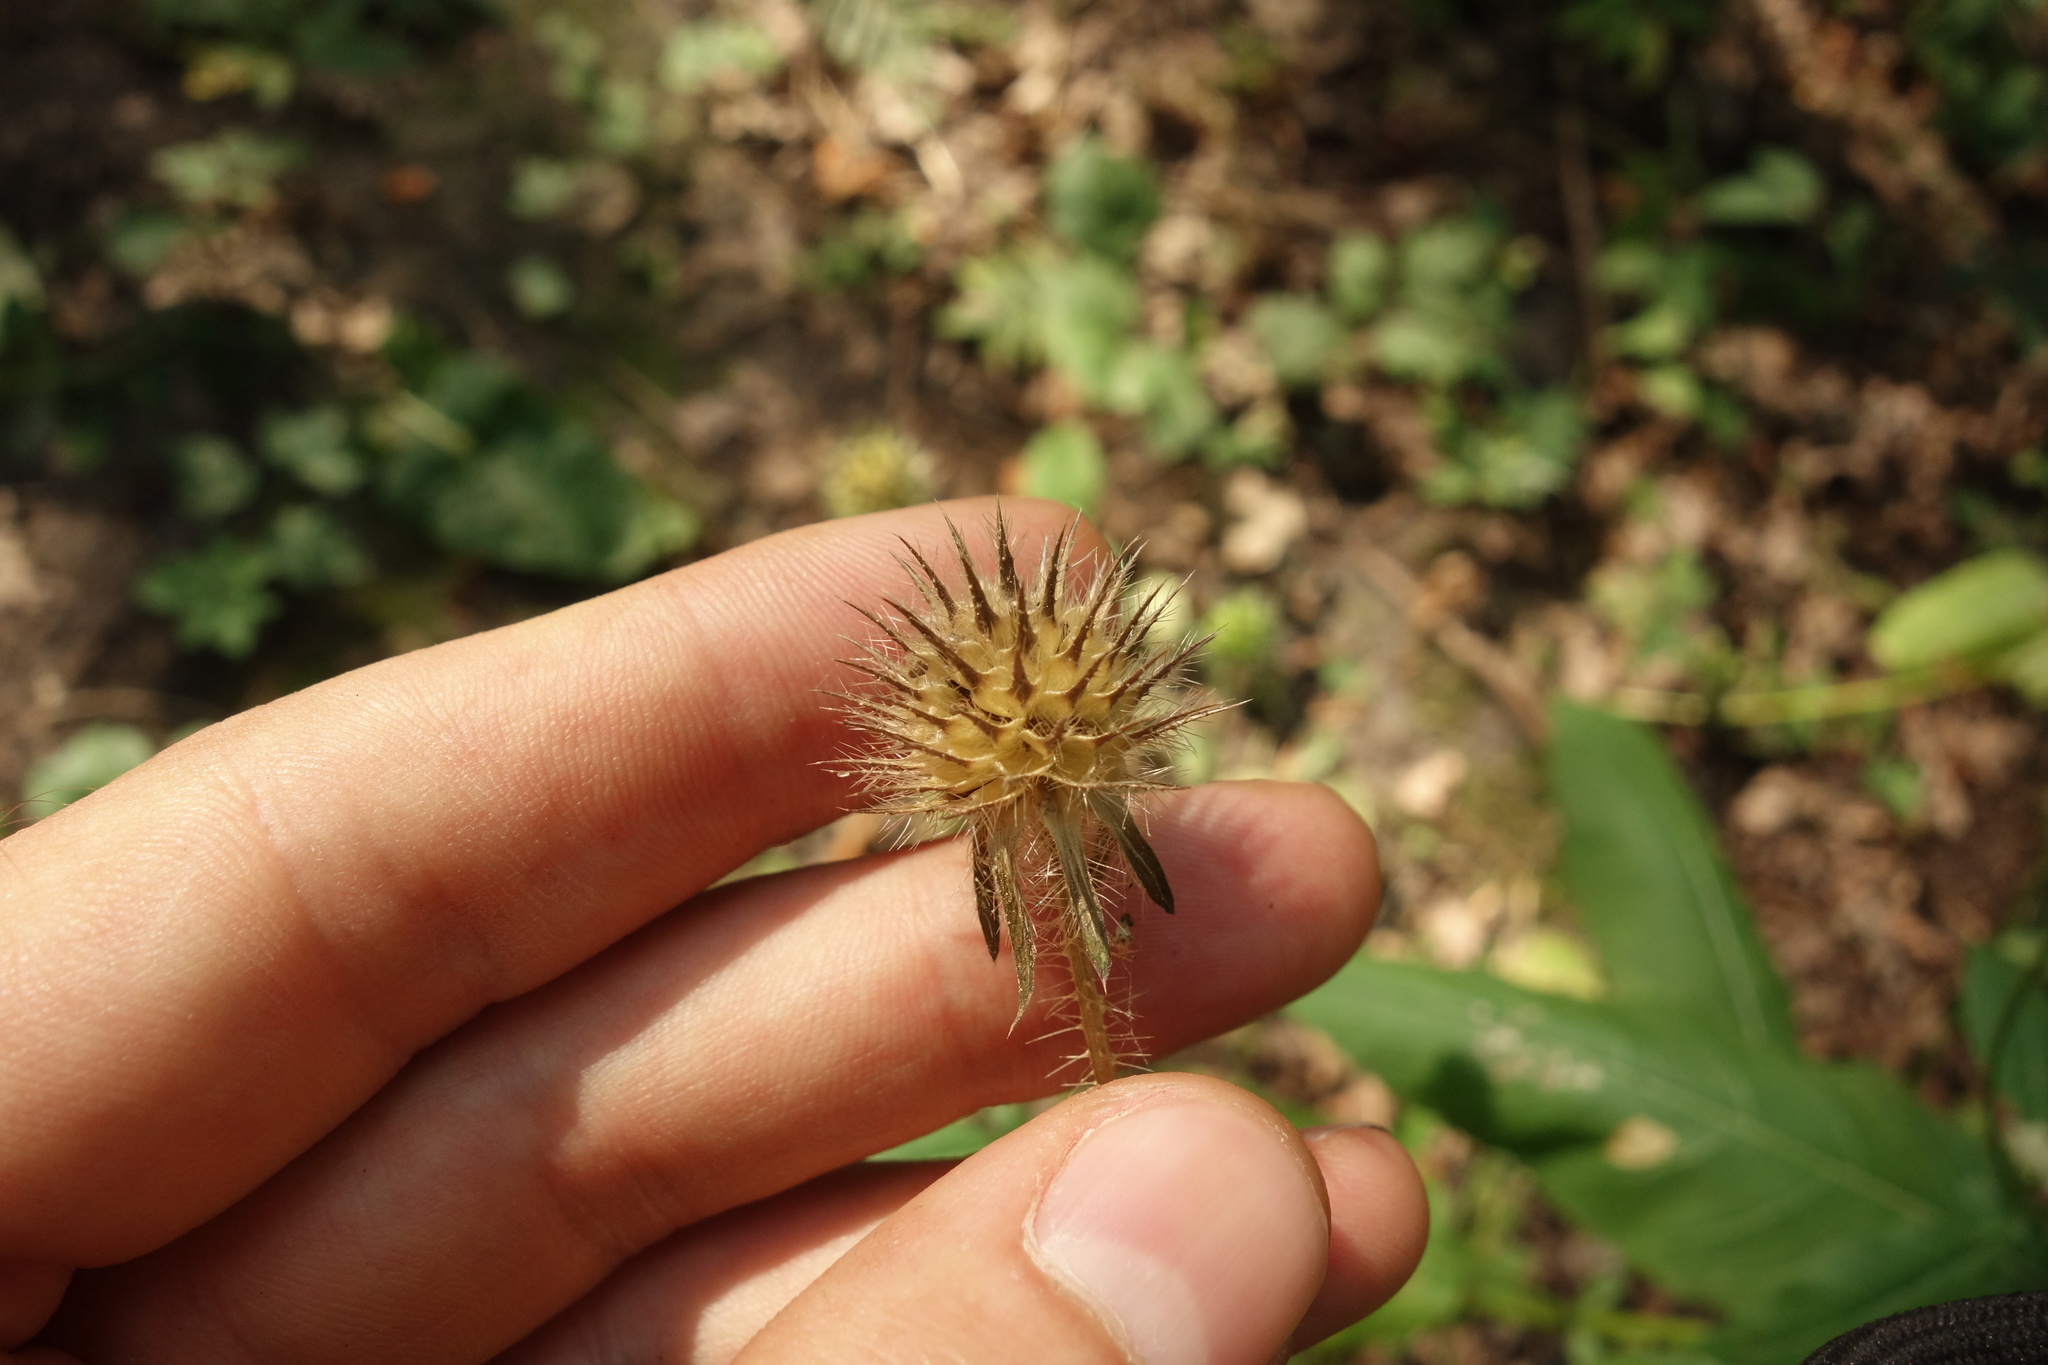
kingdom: Plantae
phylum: Tracheophyta
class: Magnoliopsida
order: Dipsacales
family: Caprifoliaceae
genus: Dipsacus
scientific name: Dipsacus pilosus
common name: Small teasel
